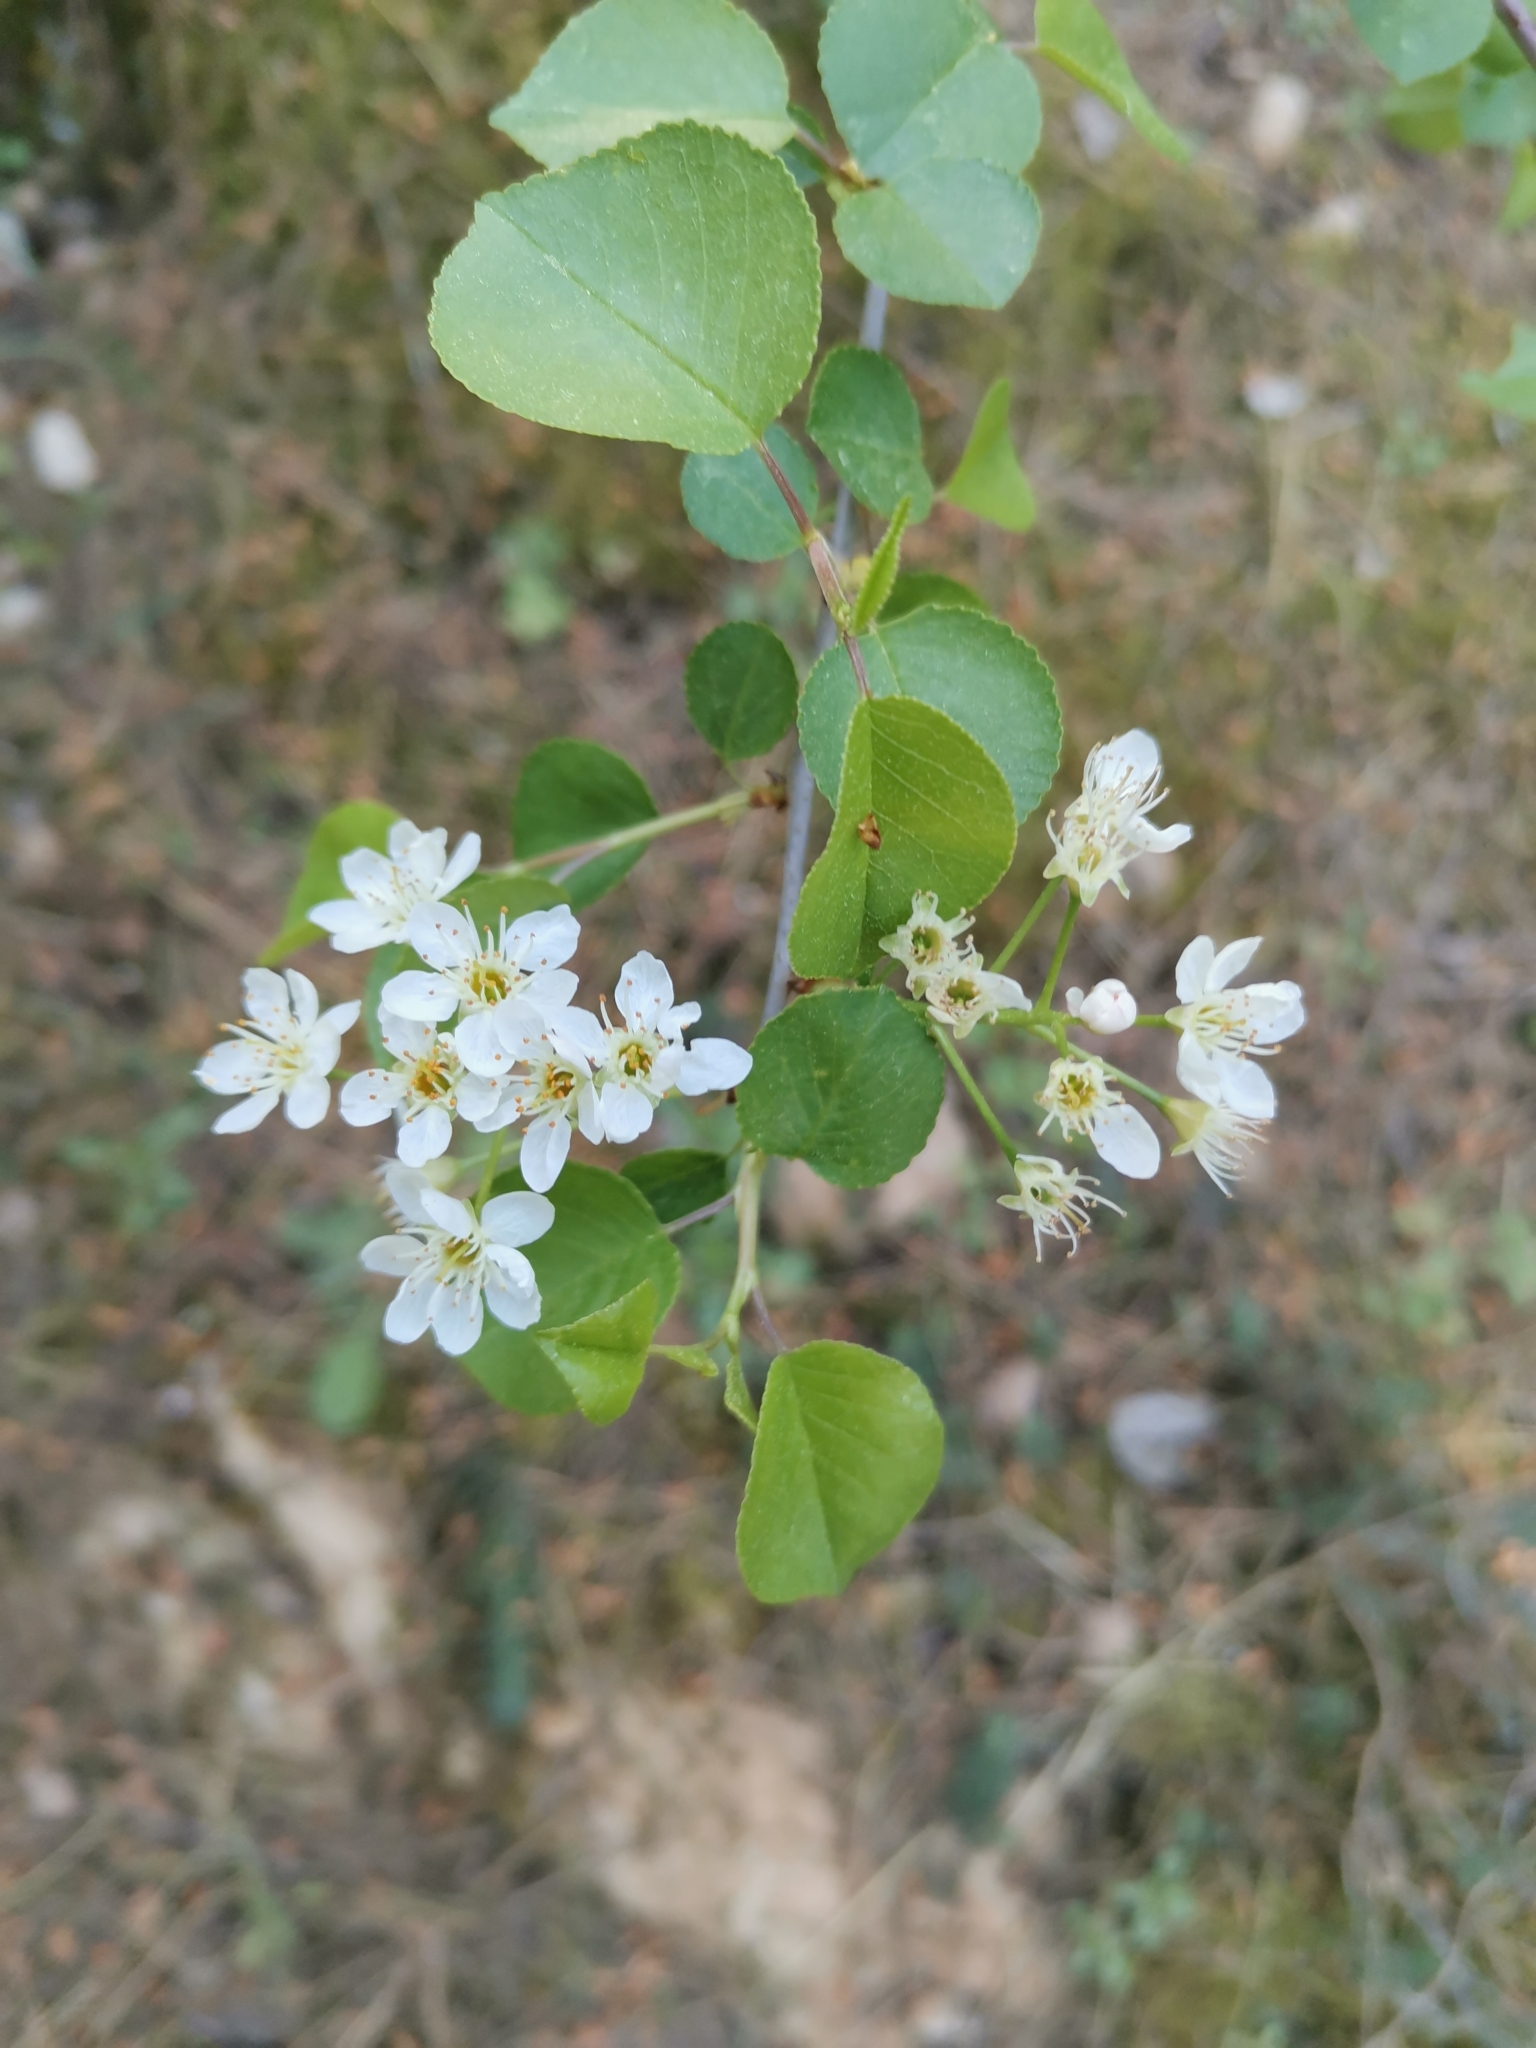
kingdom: Plantae
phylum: Tracheophyta
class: Magnoliopsida
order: Rosales
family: Rosaceae
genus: Prunus
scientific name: Prunus mahaleb
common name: Mahaleb cherry
